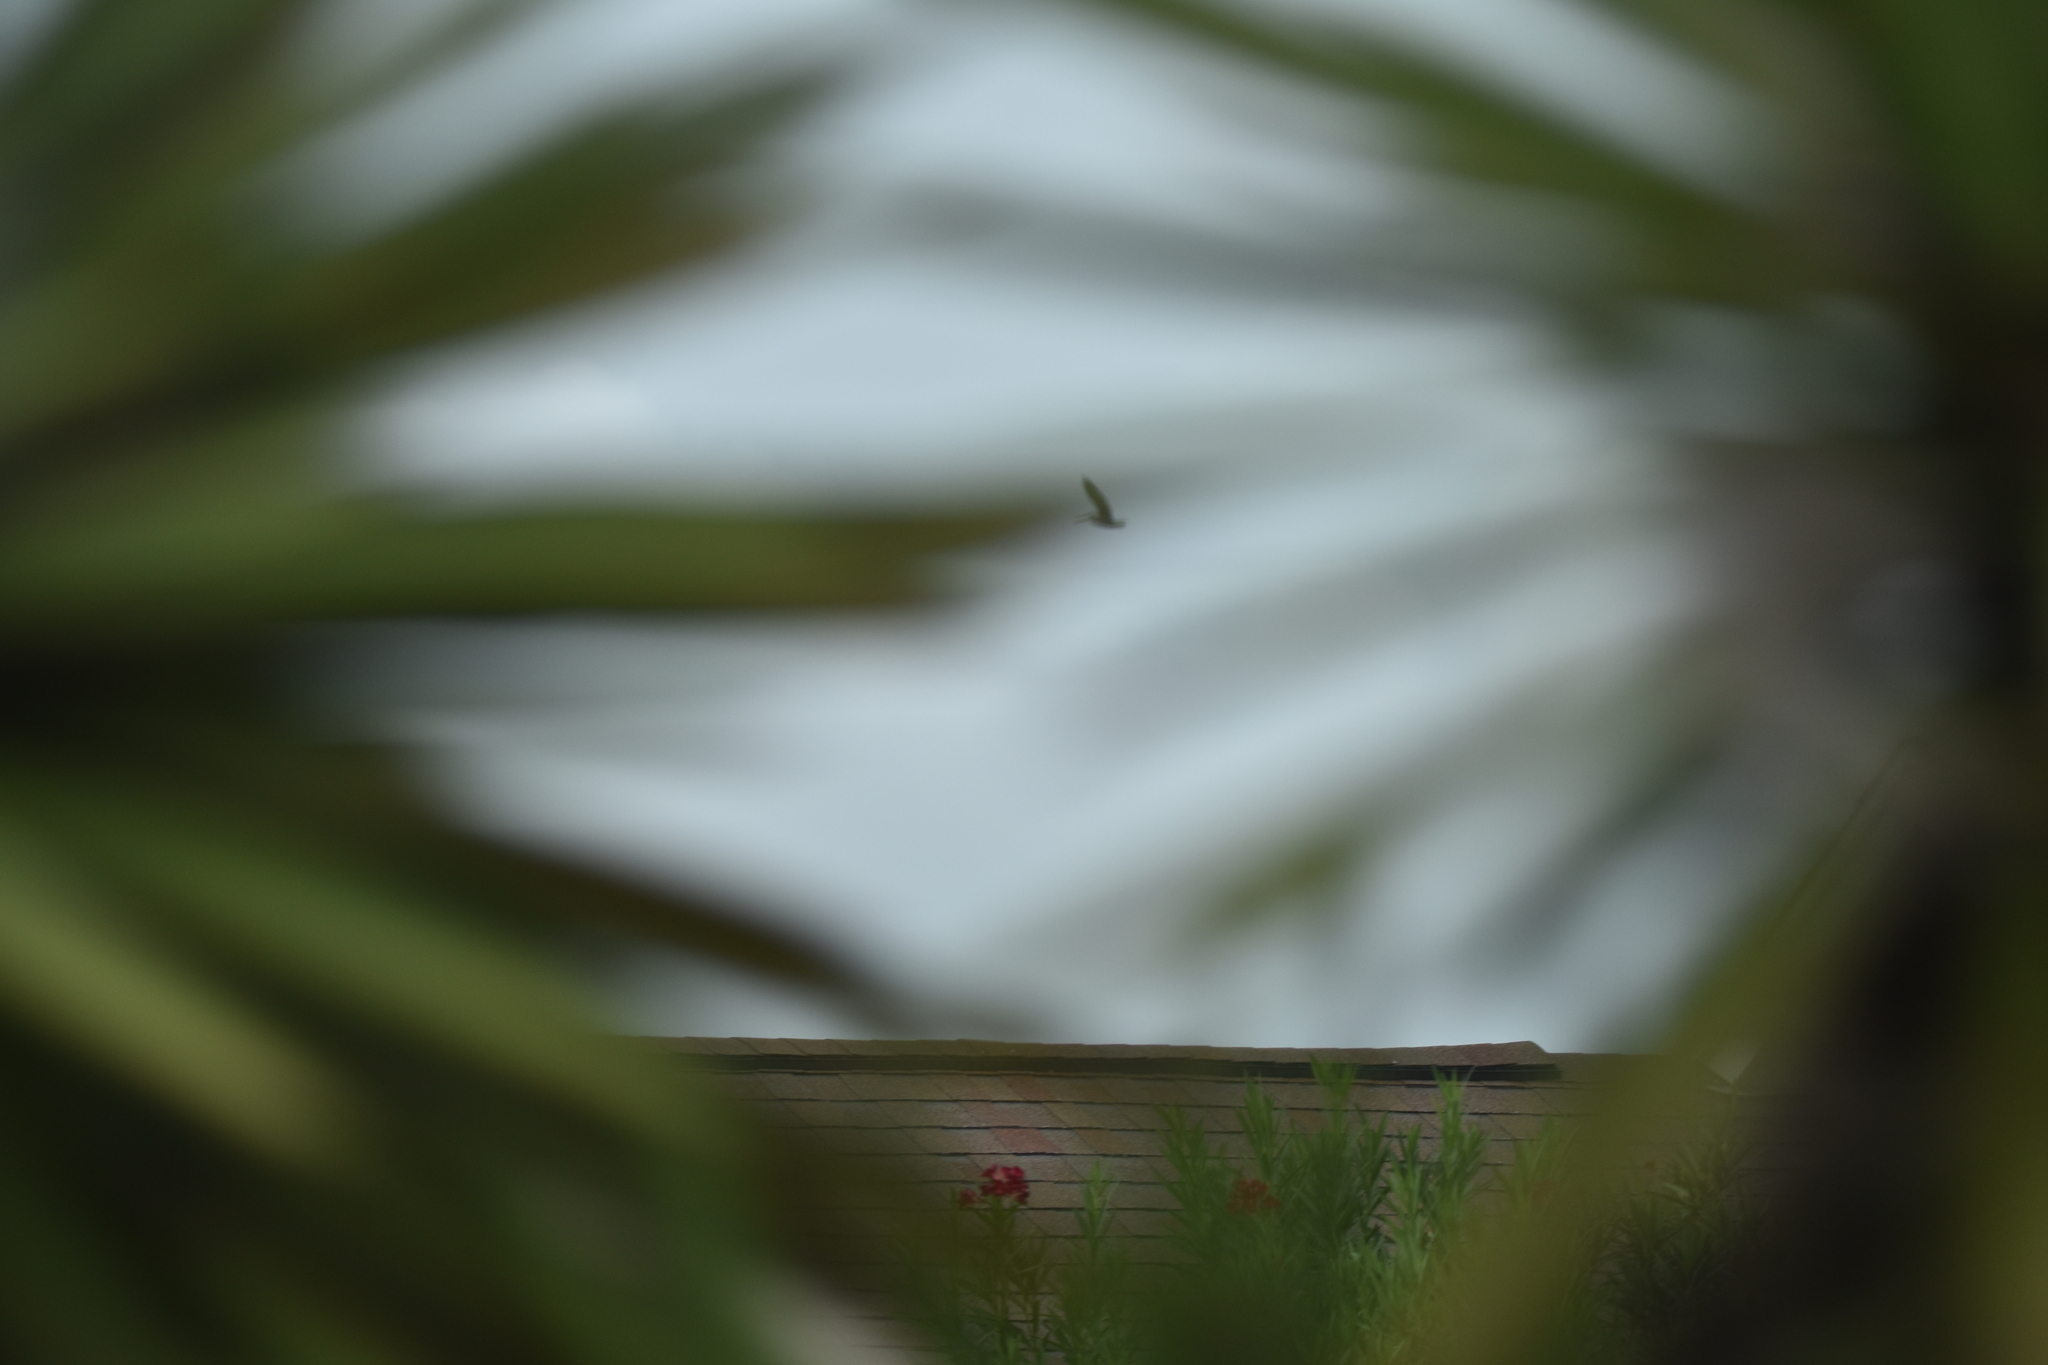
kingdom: Animalia
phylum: Chordata
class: Aves
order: Pelecaniformes
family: Pelecanidae
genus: Pelecanus
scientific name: Pelecanus occidentalis
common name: Brown pelican
